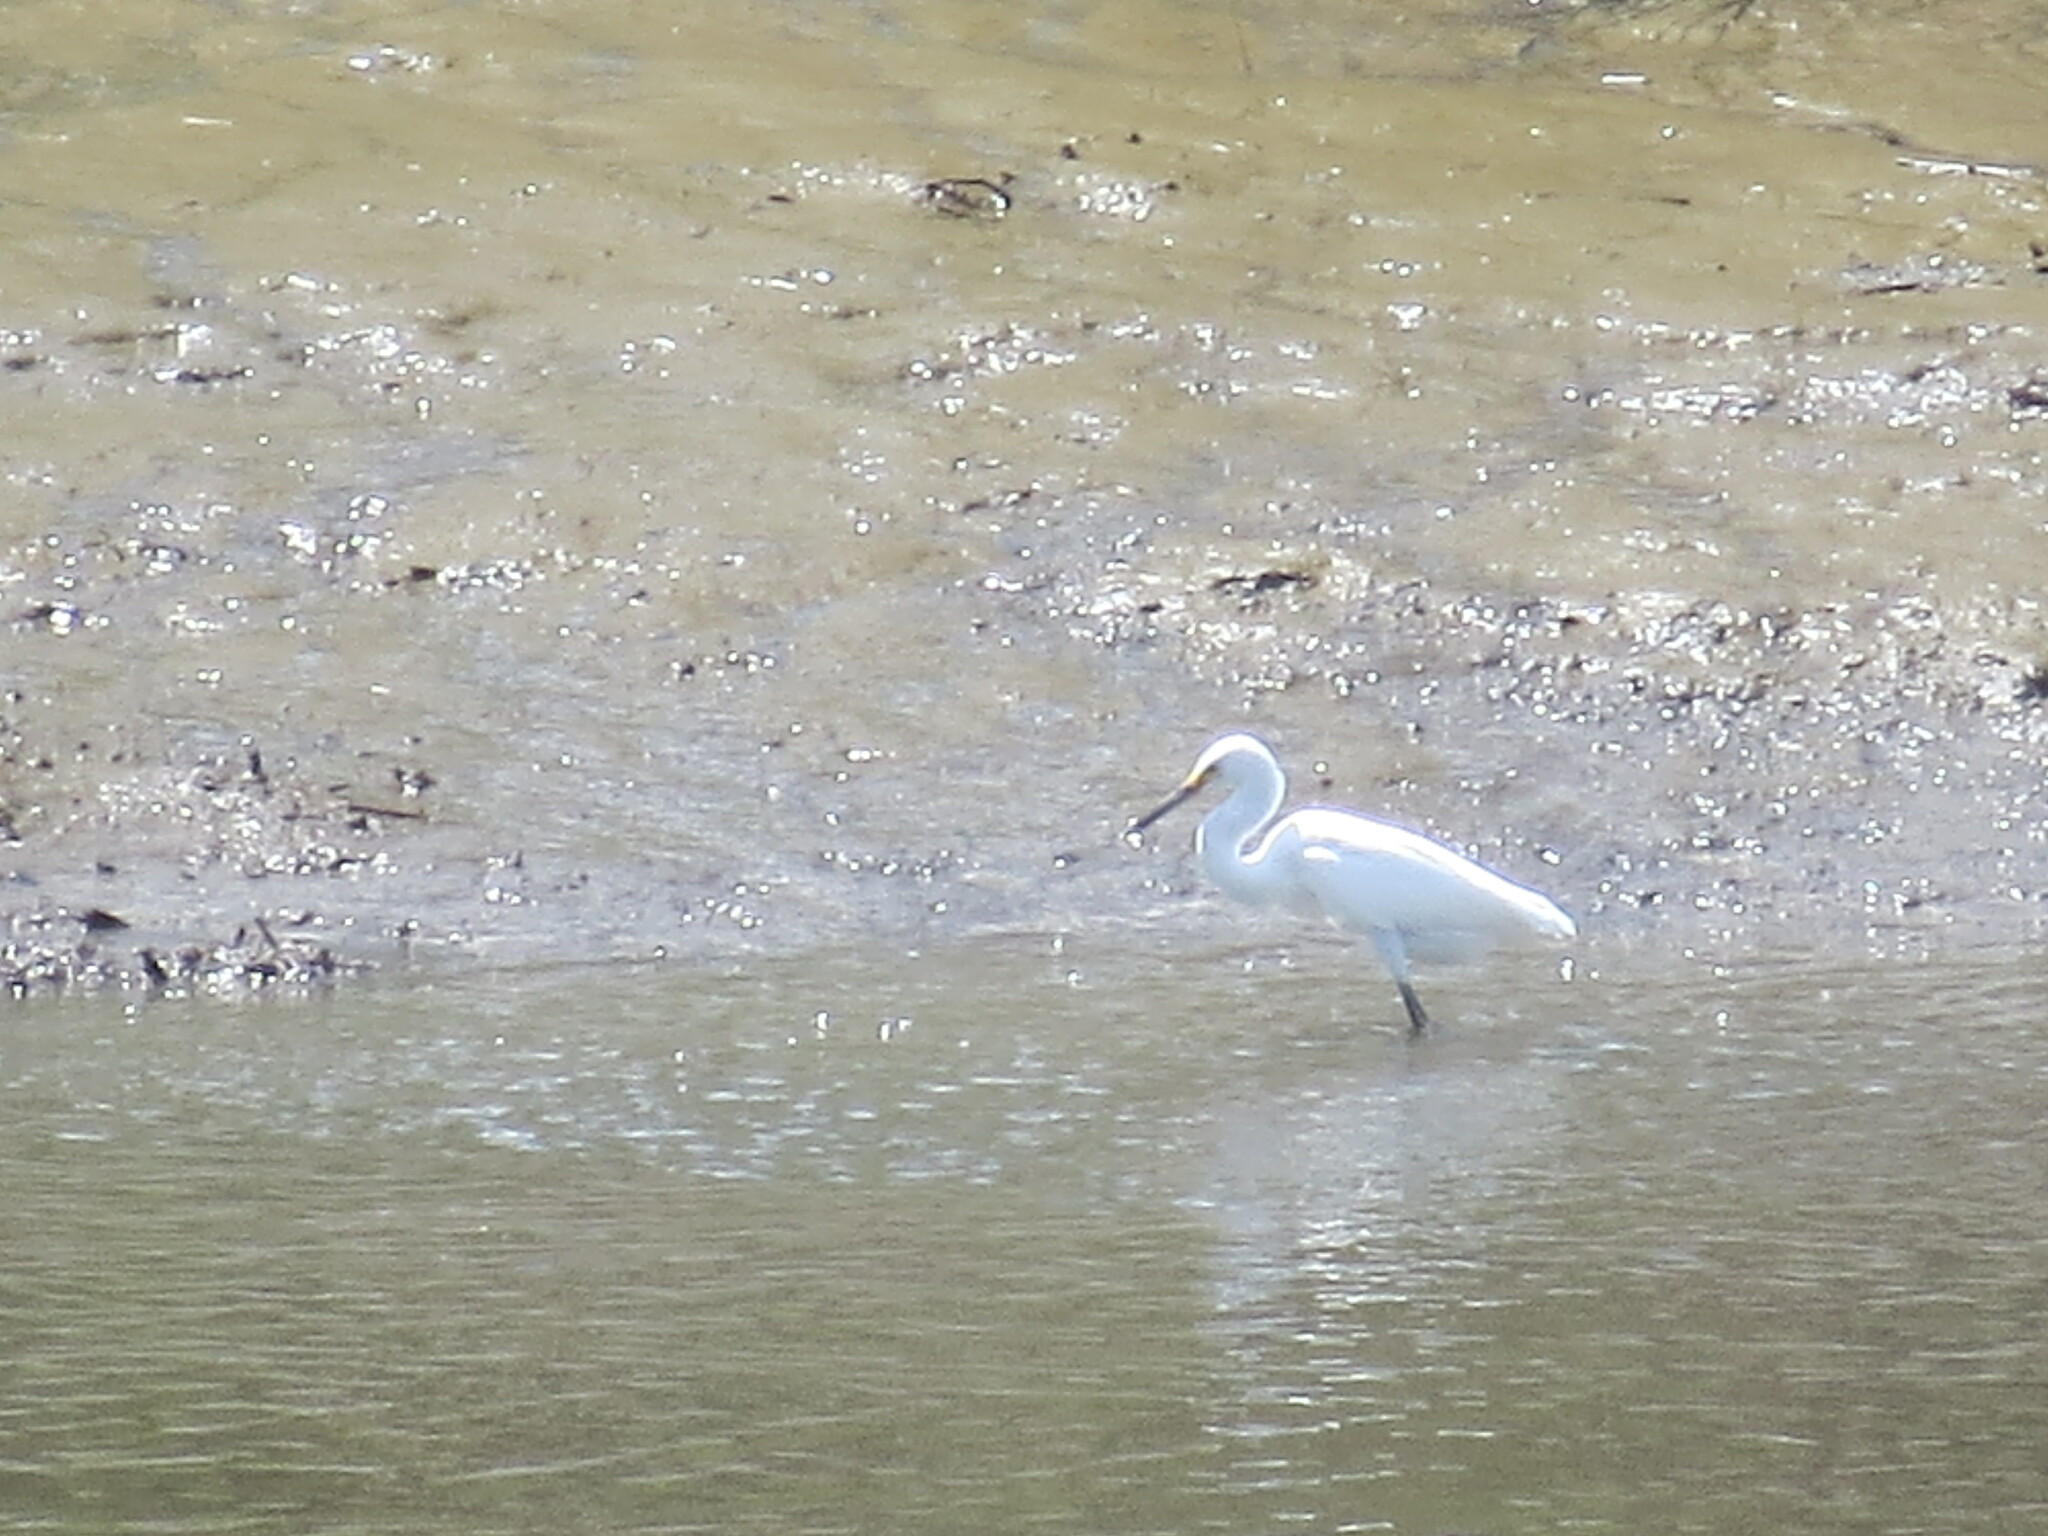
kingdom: Animalia
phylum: Chordata
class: Aves
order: Pelecaniformes
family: Ardeidae
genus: Egretta
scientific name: Egretta thula
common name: Snowy egret
